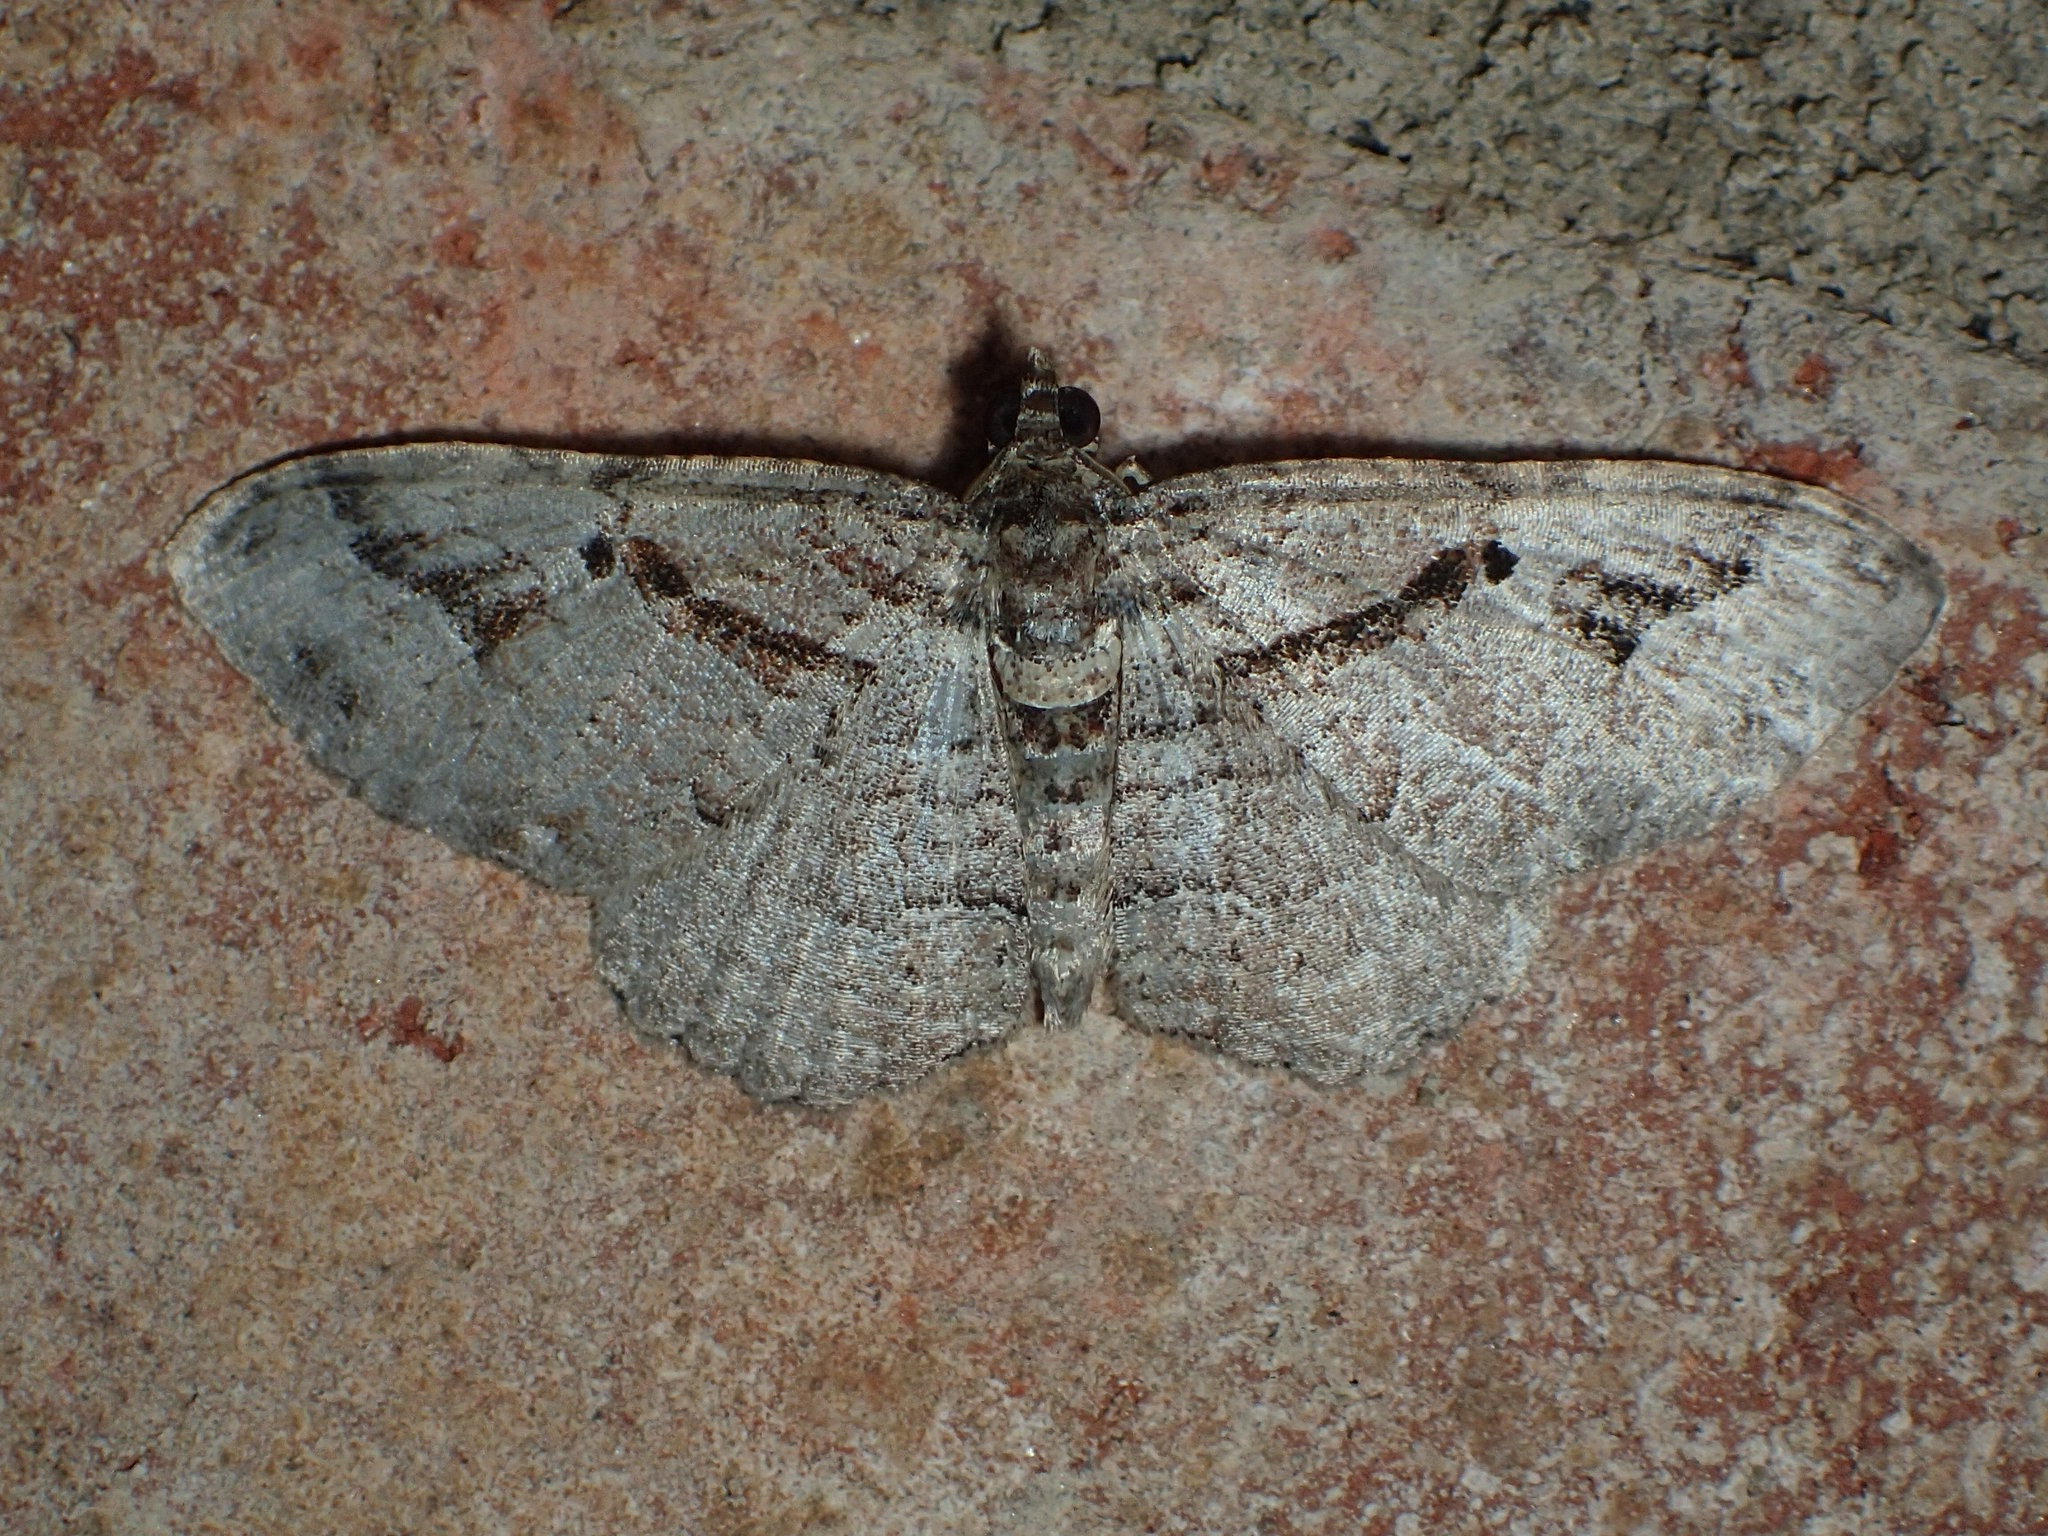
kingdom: Animalia
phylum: Arthropoda
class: Insecta
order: Lepidoptera
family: Geometridae
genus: Costaconvexa
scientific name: Costaconvexa centrostrigaria
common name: Bent-line carpet
